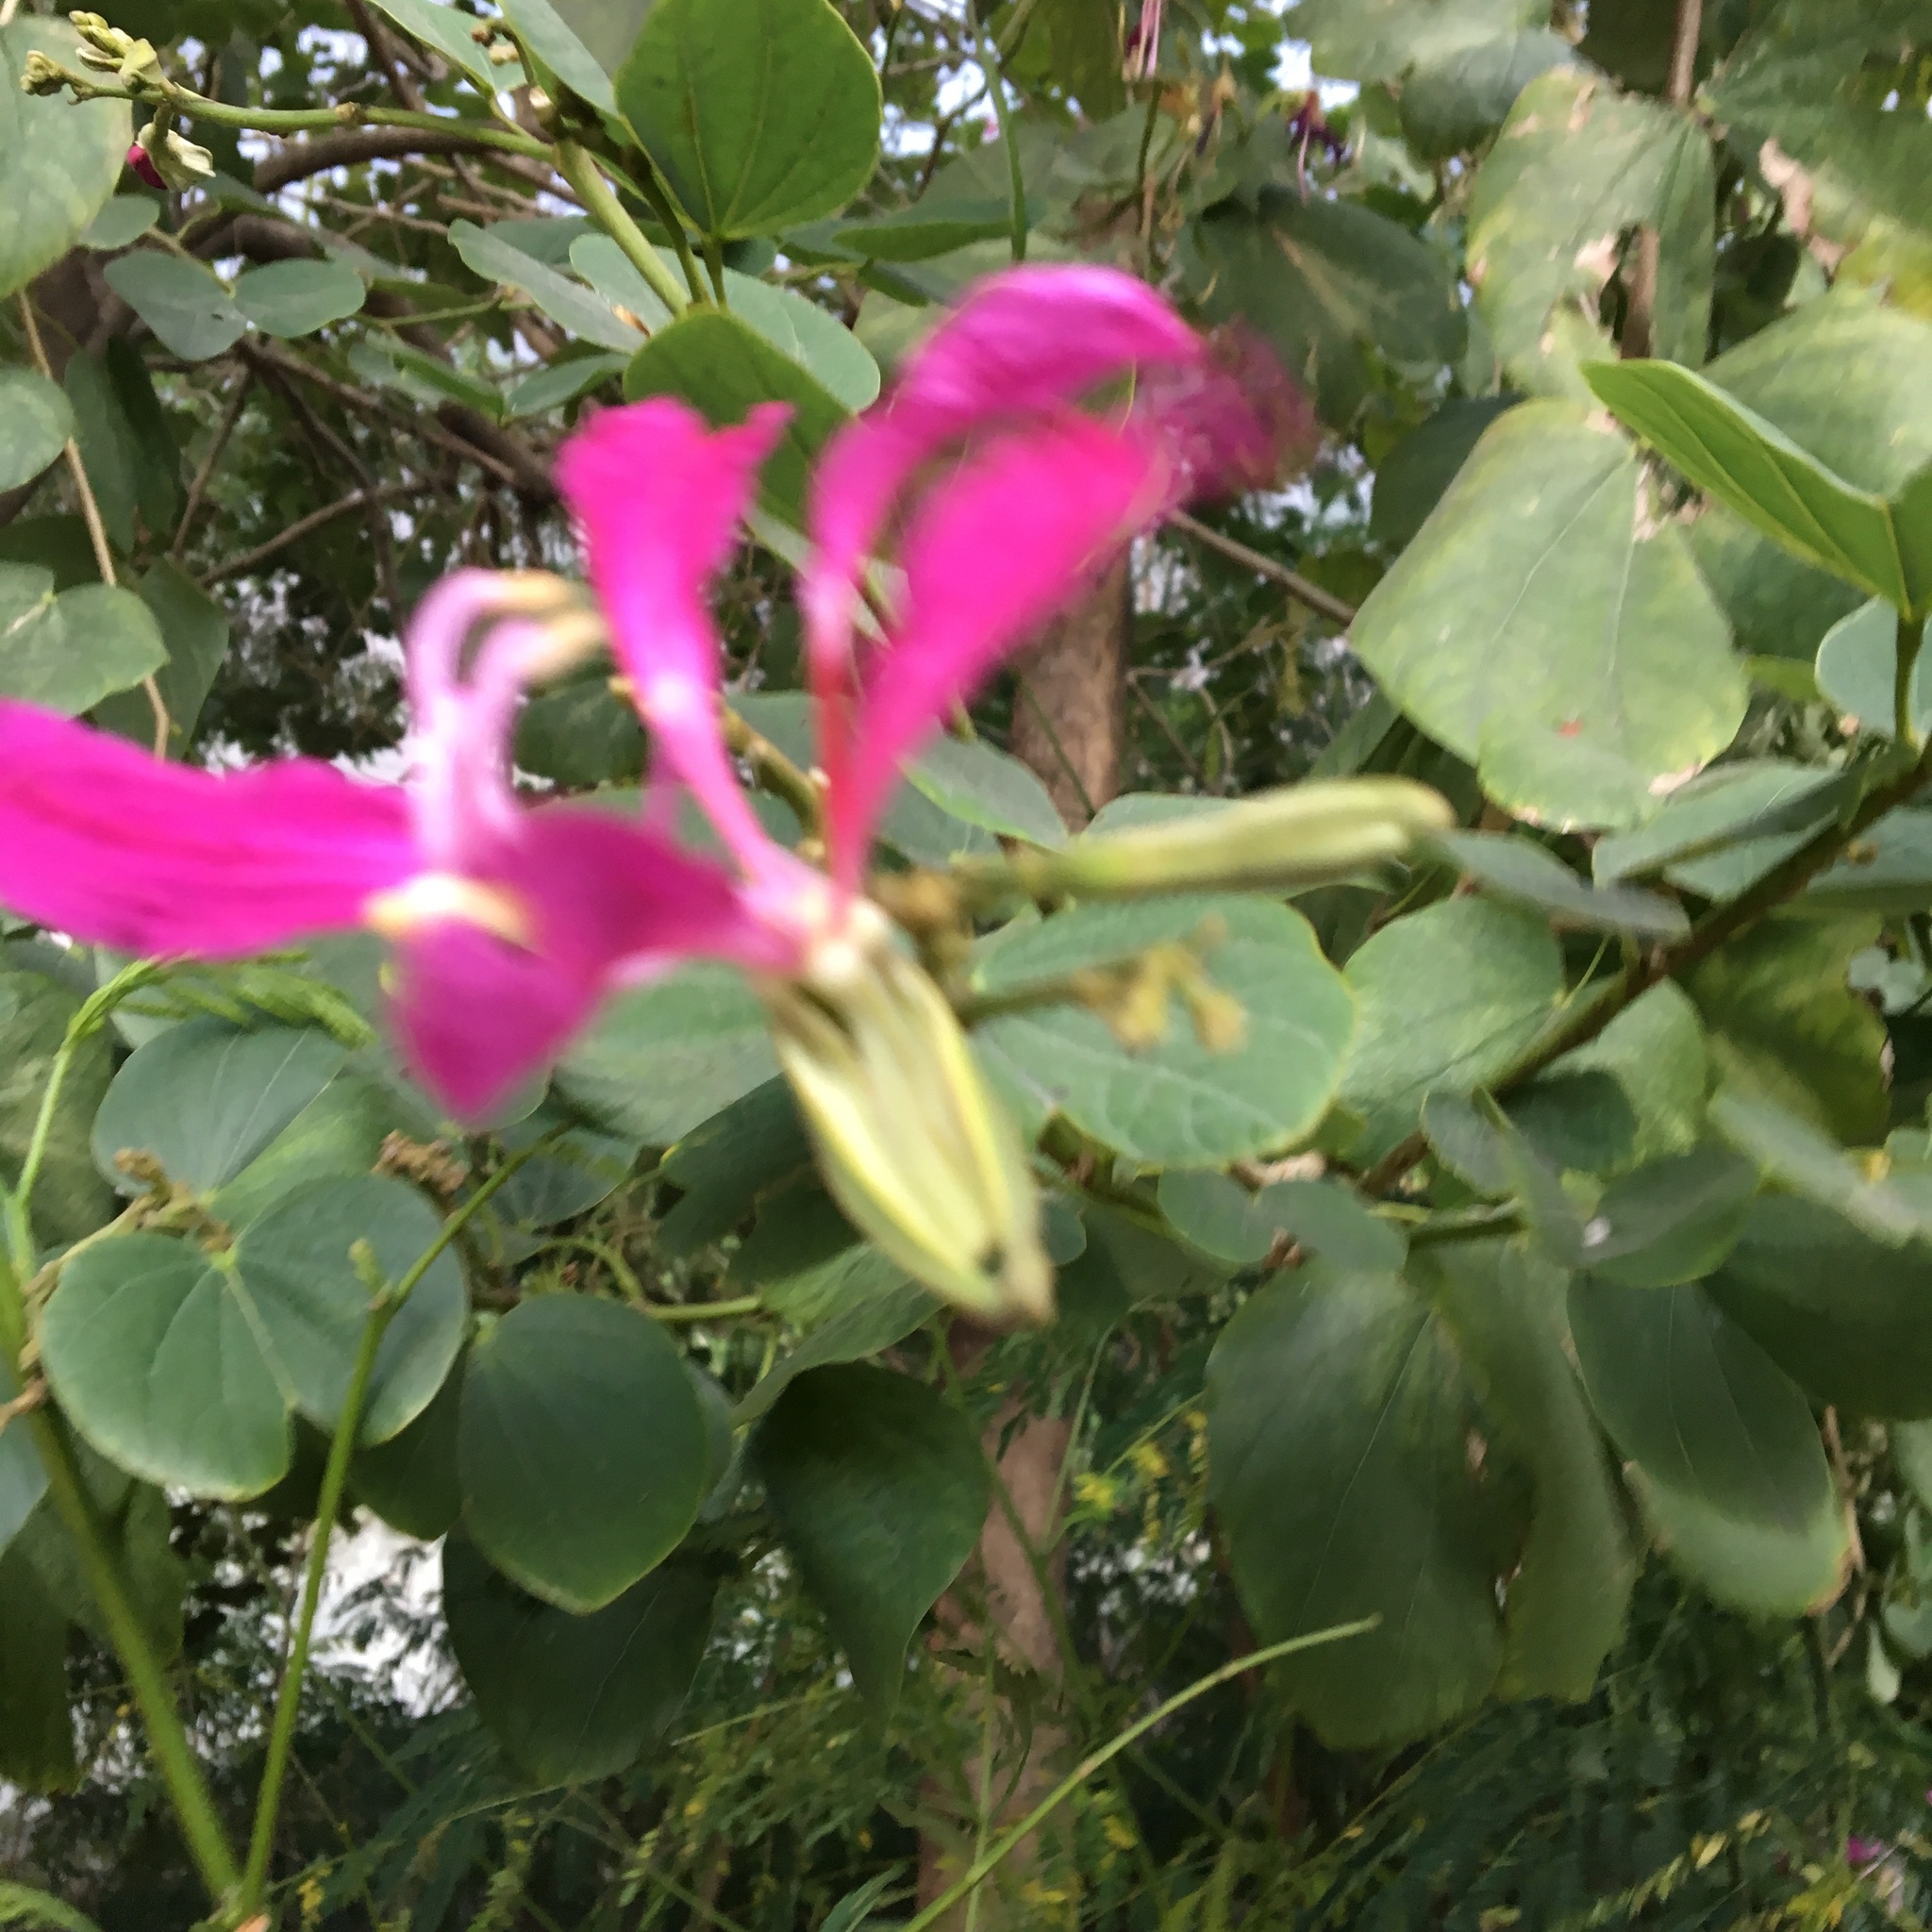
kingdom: Plantae
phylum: Tracheophyta
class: Magnoliopsida
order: Fabales
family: Fabaceae
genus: Bauhinia
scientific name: Bauhinia purpurea
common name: Butterfly-tree
